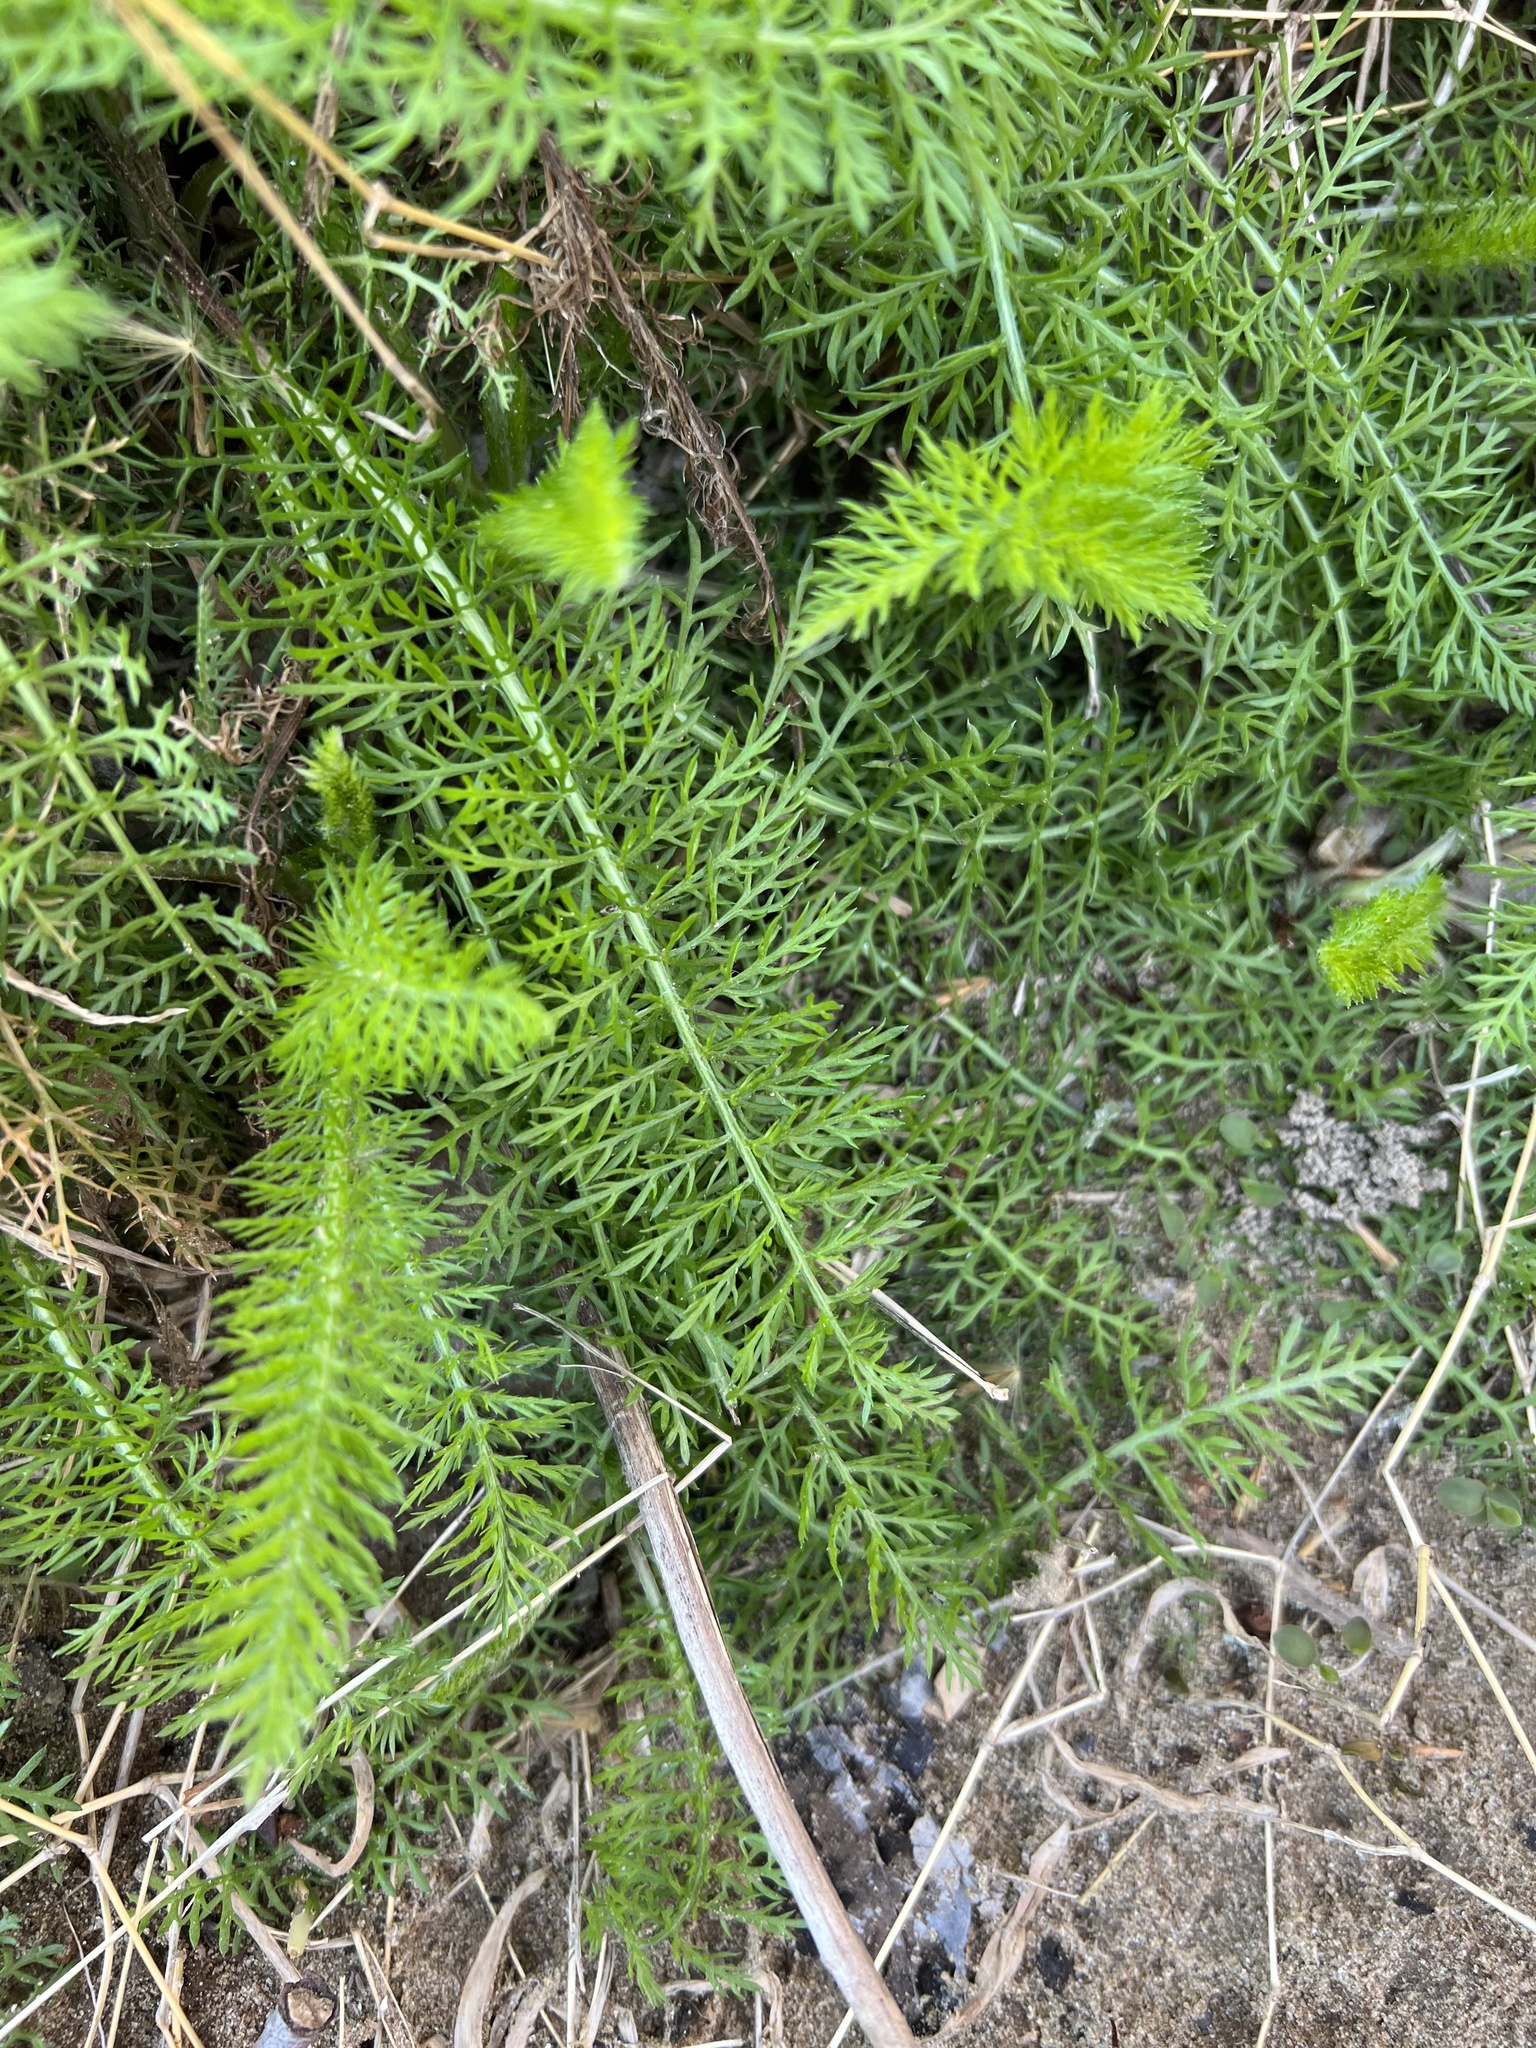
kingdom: Plantae
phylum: Tracheophyta
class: Magnoliopsida
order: Asterales
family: Asteraceae
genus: Achillea
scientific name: Achillea millefolium
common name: Yarrow
